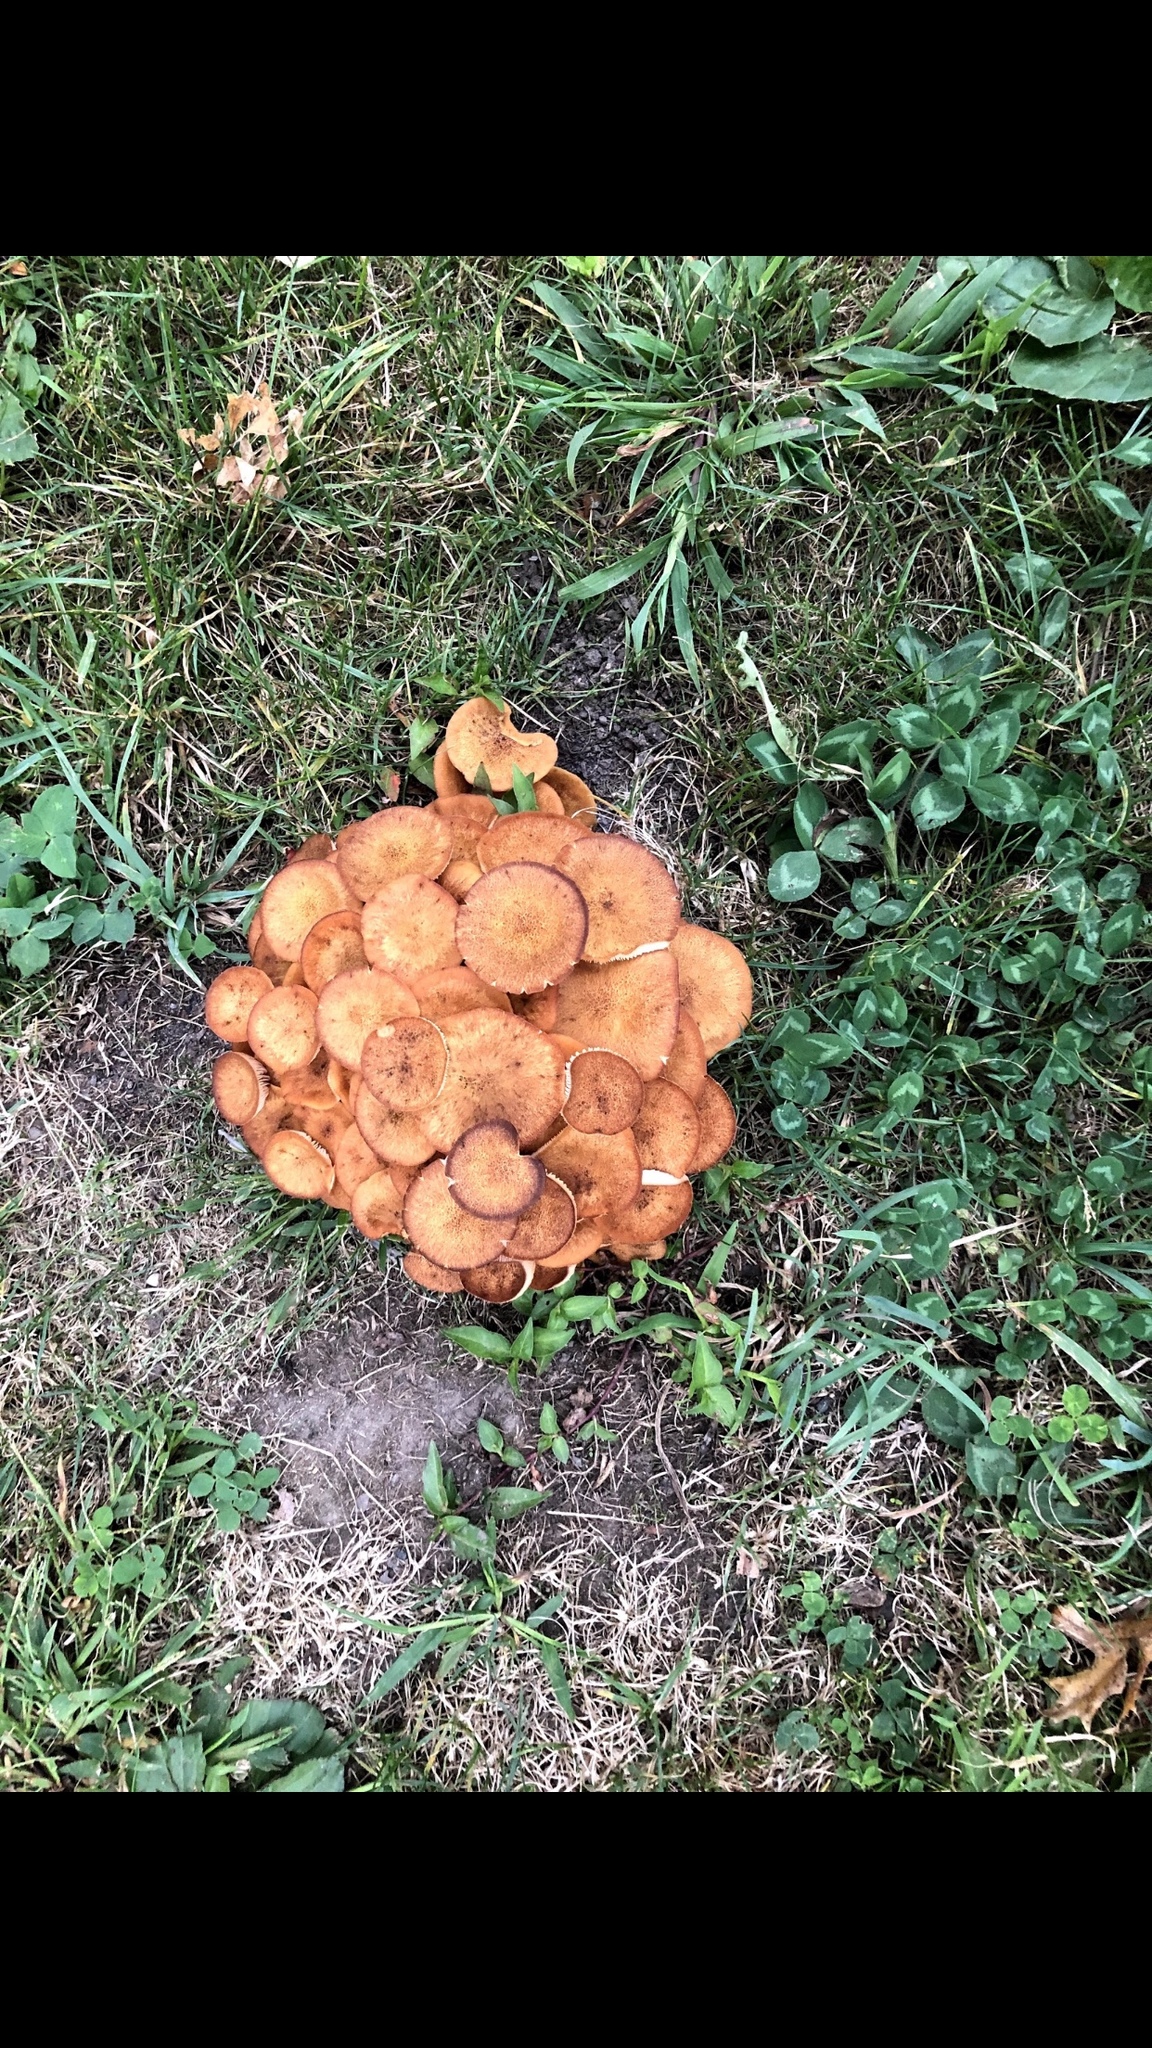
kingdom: Fungi
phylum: Basidiomycota
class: Agaricomycetes
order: Agaricales
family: Physalacriaceae
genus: Desarmillaria
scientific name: Desarmillaria caespitosa
